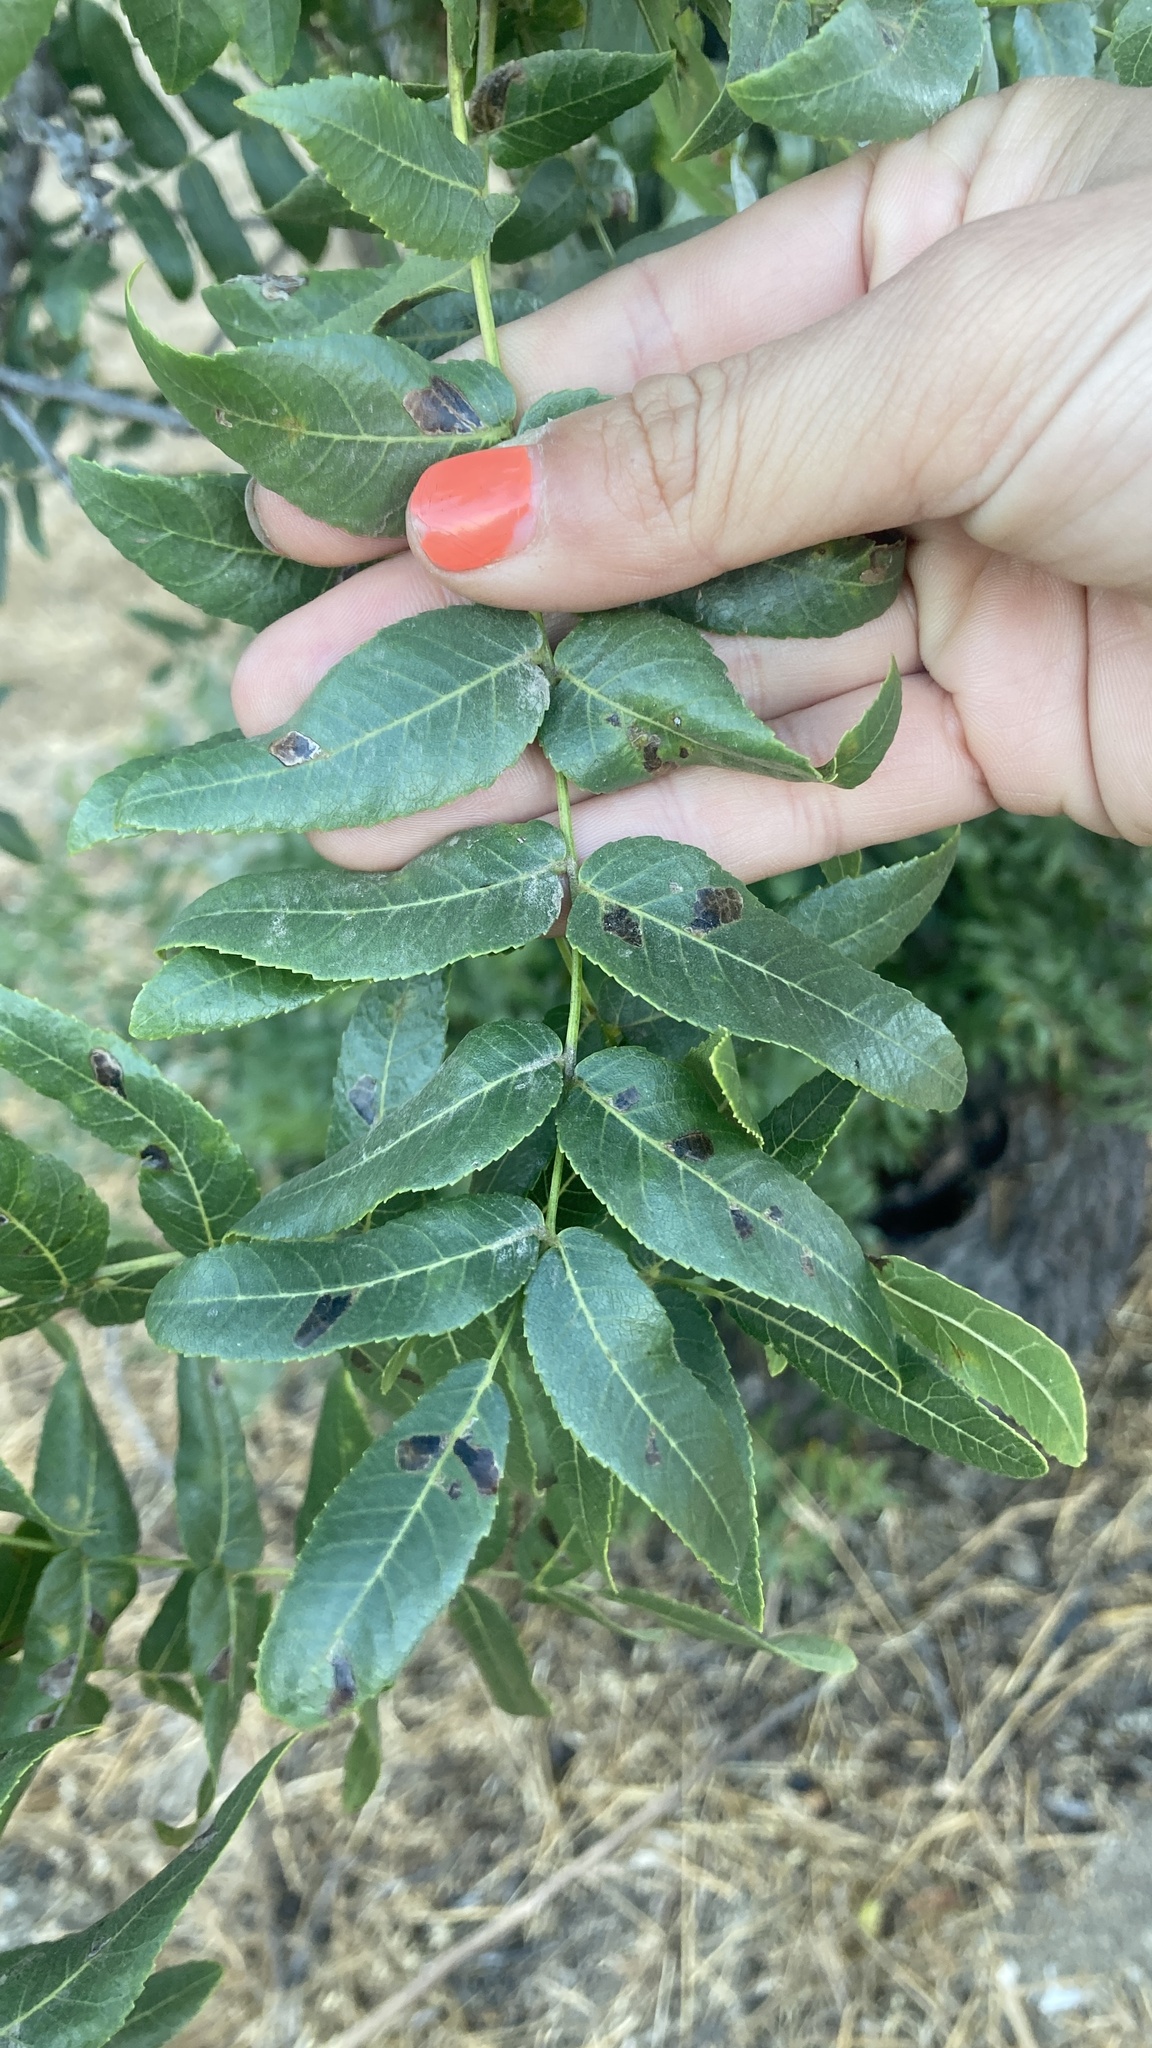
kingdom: Plantae
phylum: Tracheophyta
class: Magnoliopsida
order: Fagales
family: Juglandaceae
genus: Juglans
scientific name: Juglans californica
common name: Southern california black walnut
